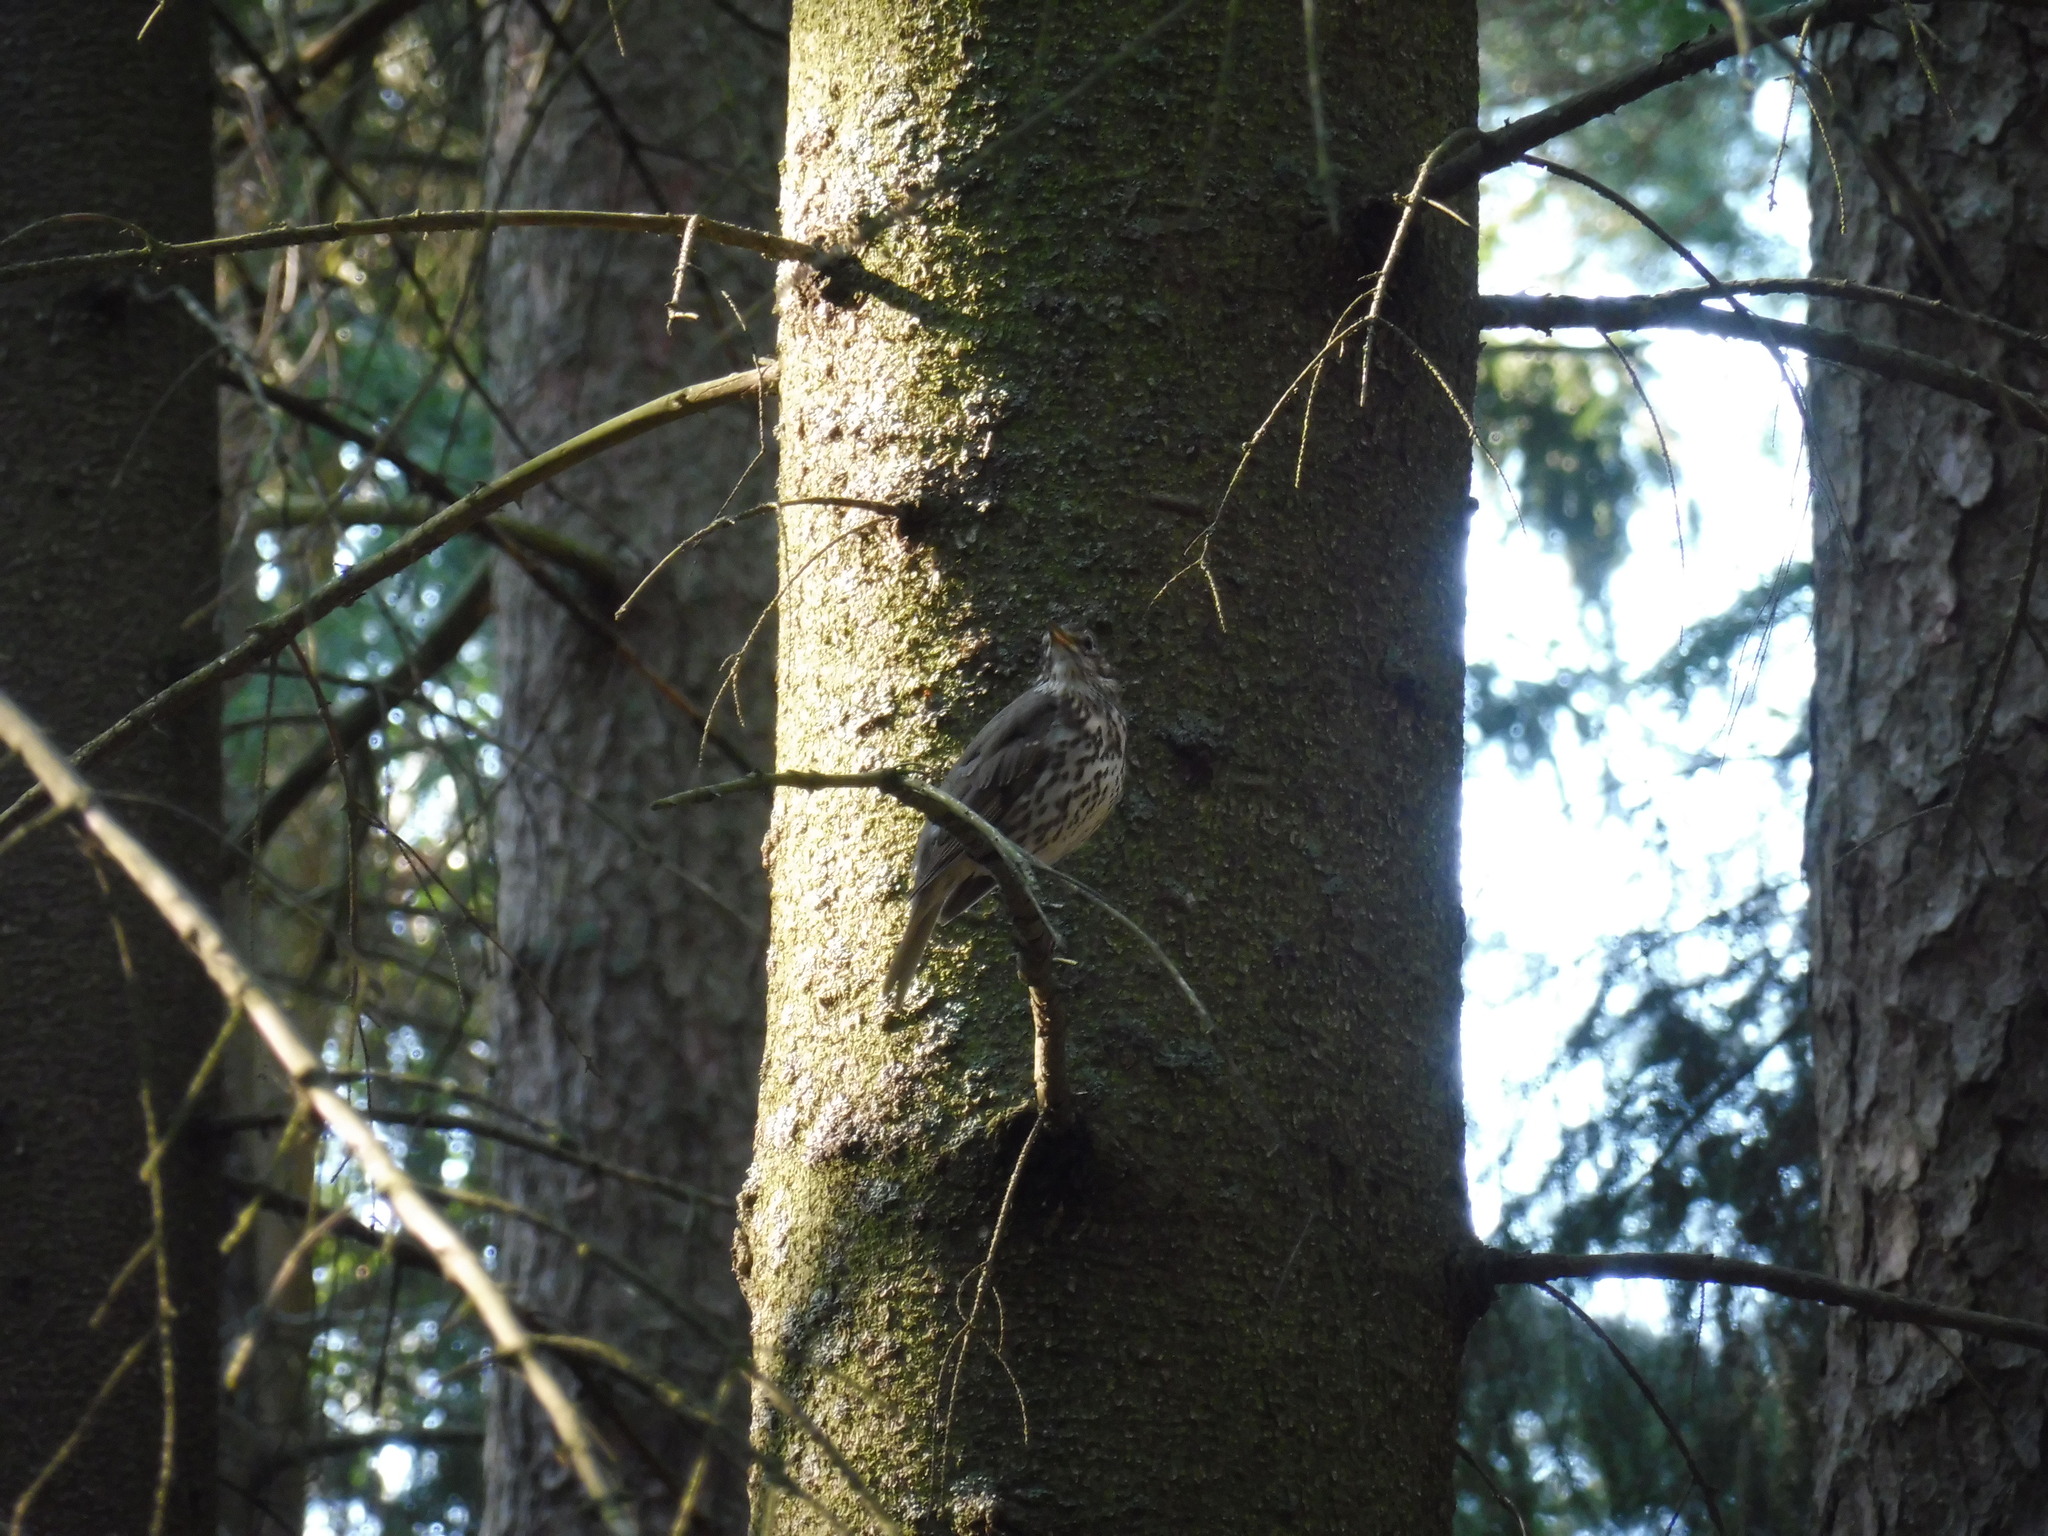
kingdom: Animalia
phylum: Chordata
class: Aves
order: Passeriformes
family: Turdidae
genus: Turdus
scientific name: Turdus philomelos
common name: Song thrush
